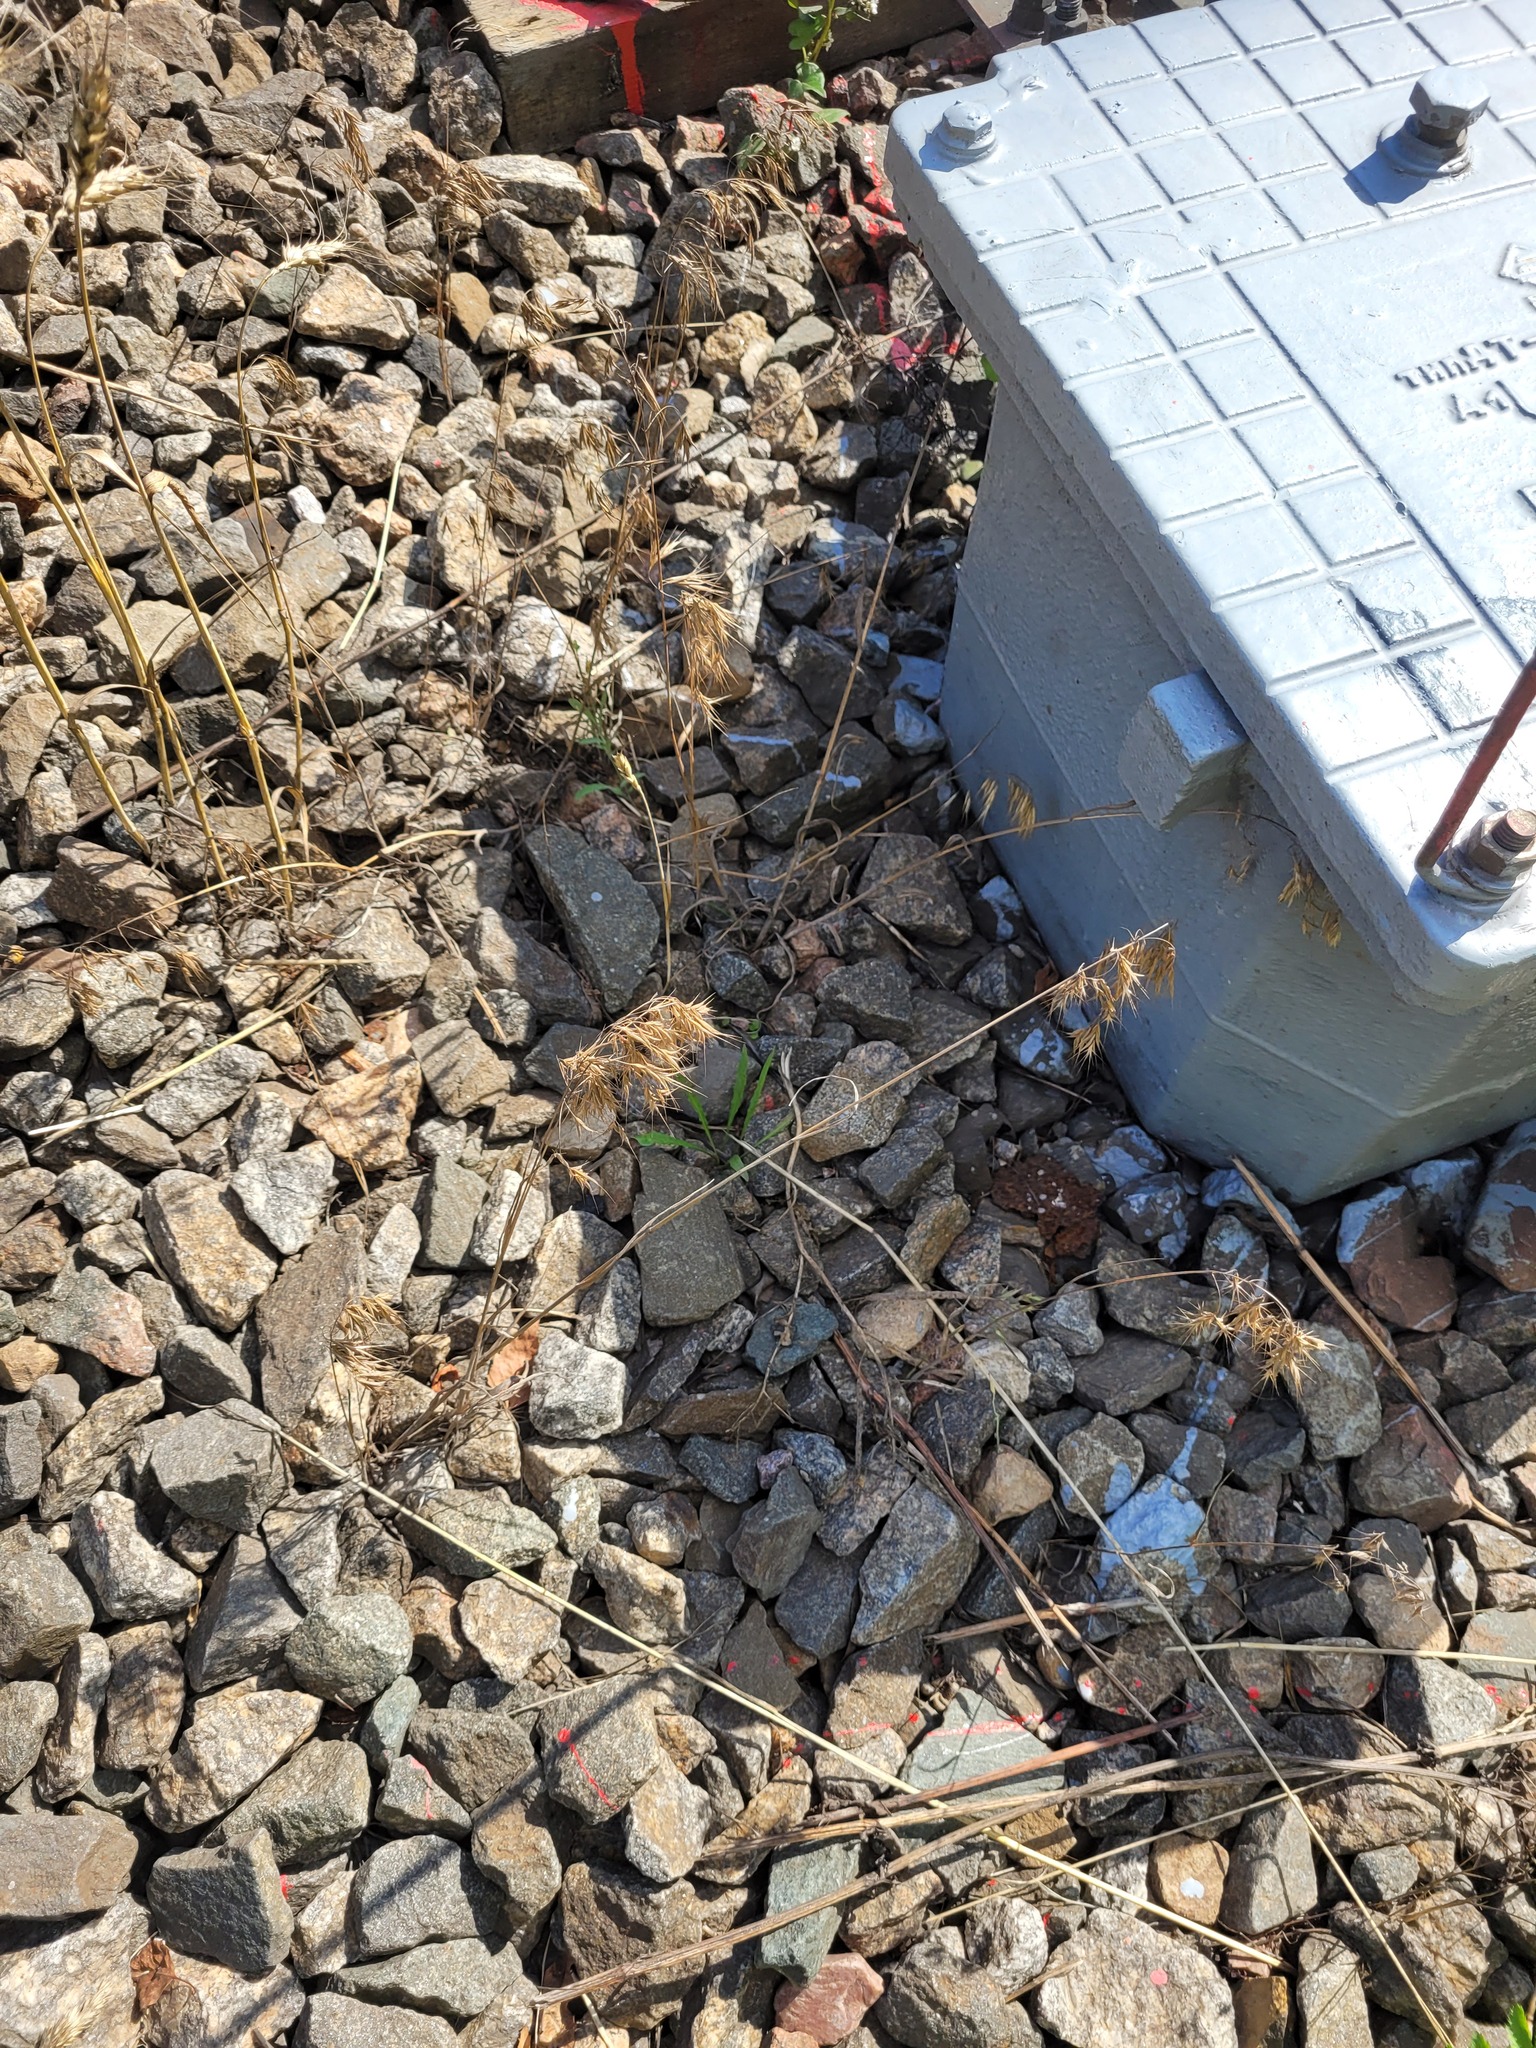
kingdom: Plantae
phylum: Tracheophyta
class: Liliopsida
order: Poales
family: Poaceae
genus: Bromus
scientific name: Bromus tectorum
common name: Cheatgrass
